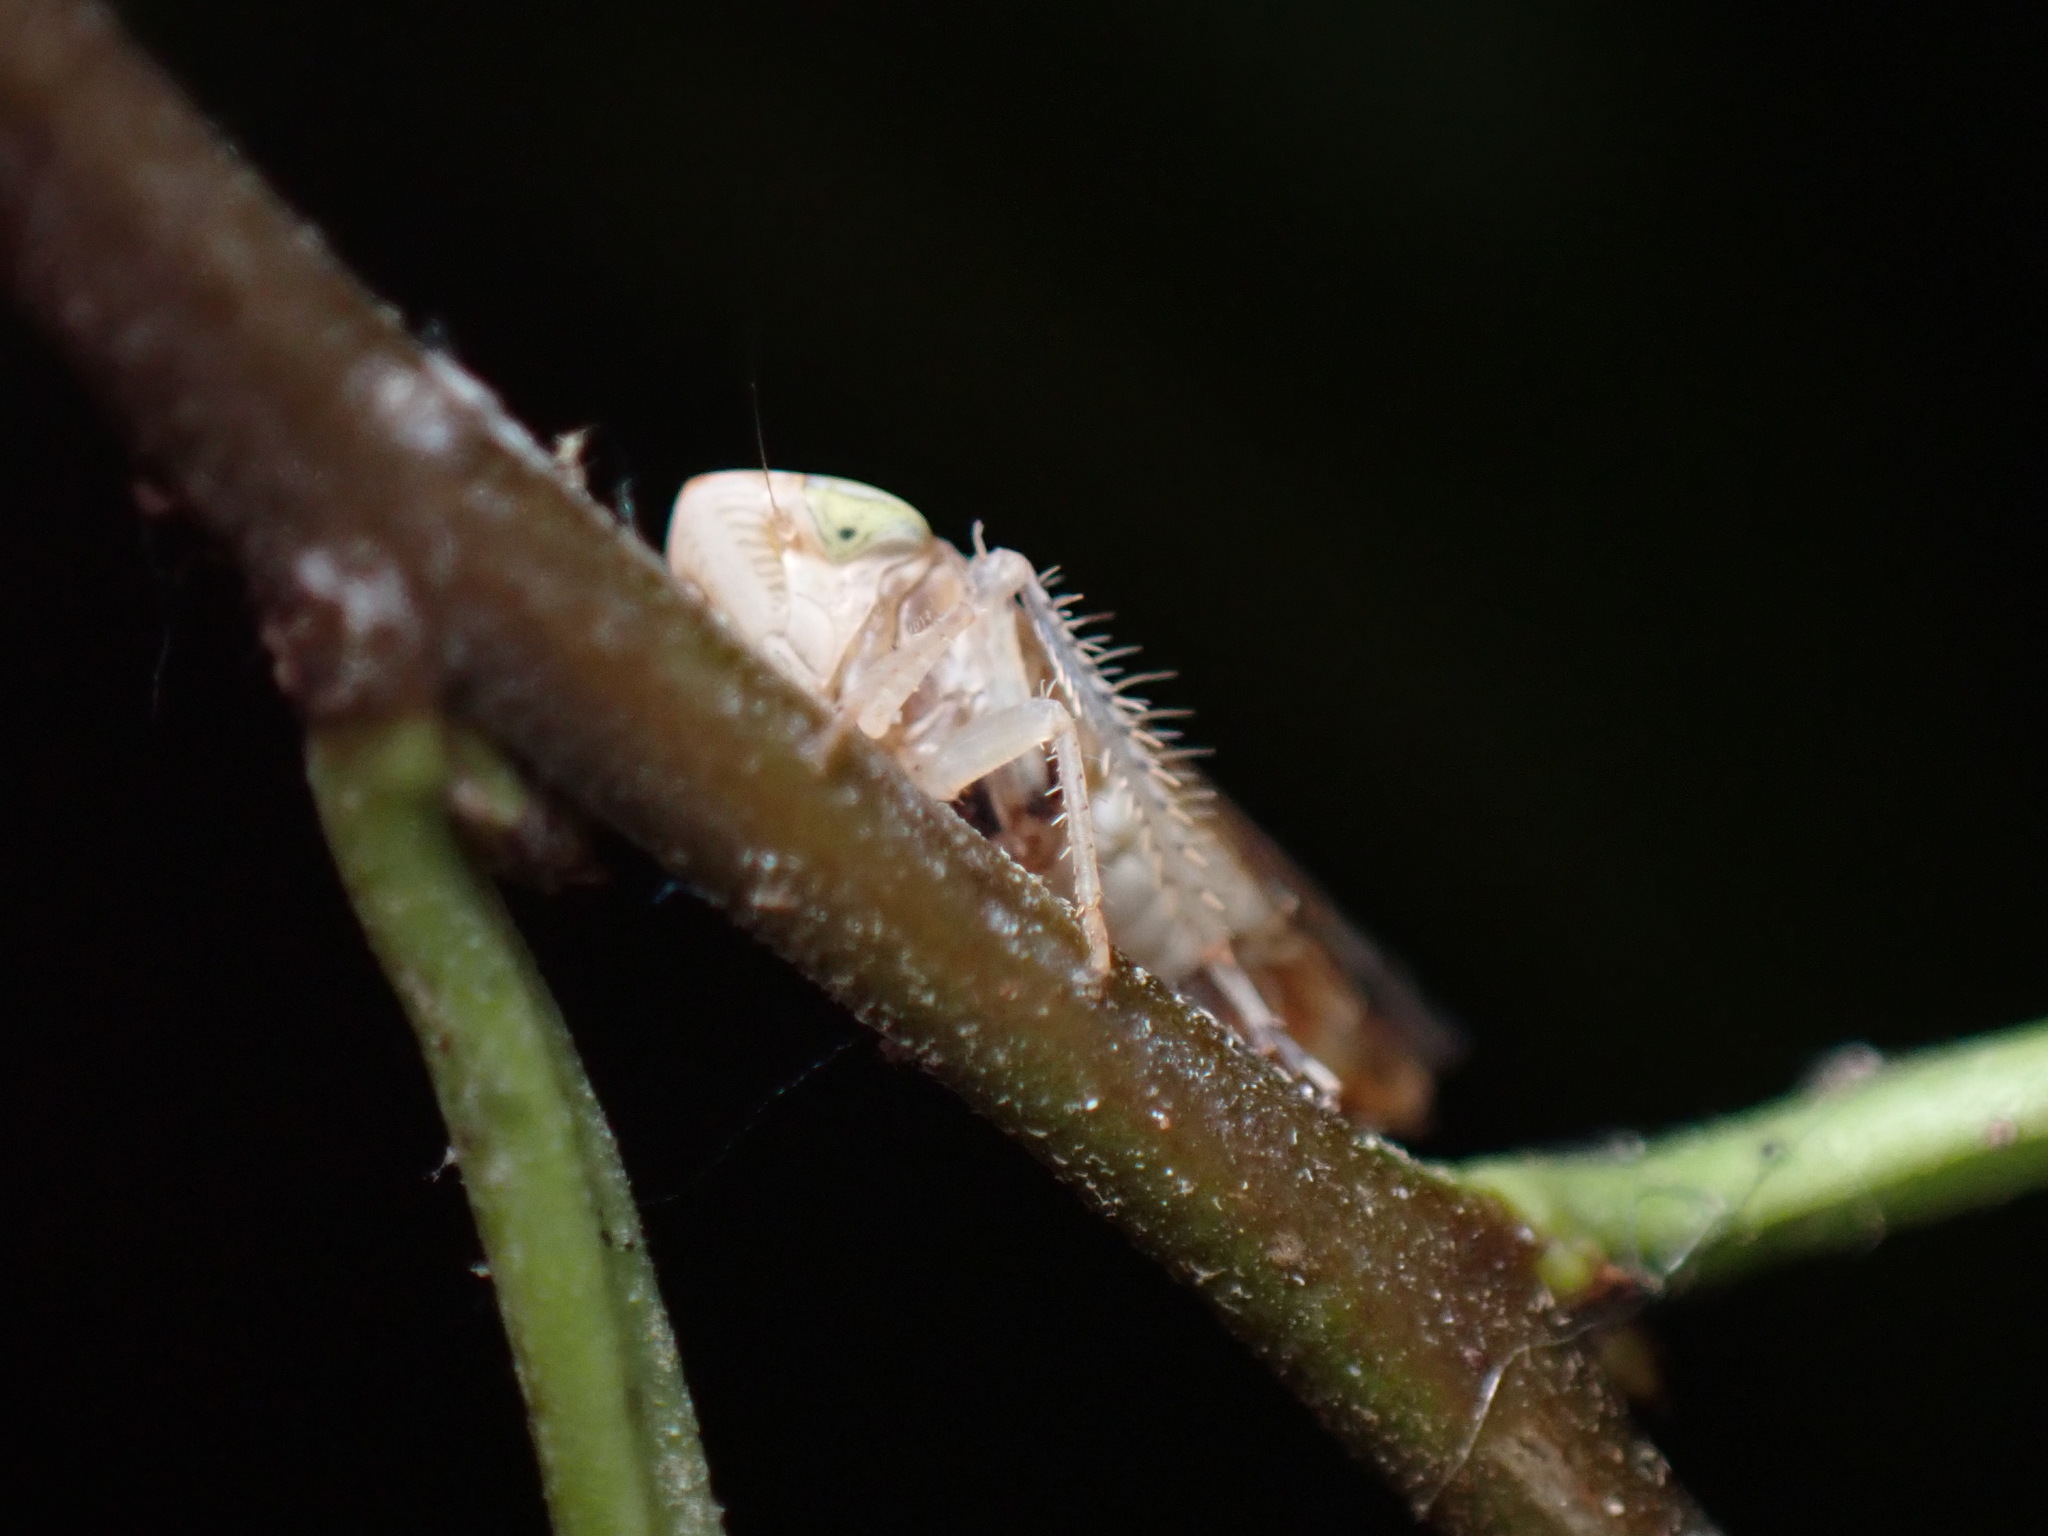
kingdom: Animalia
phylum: Arthropoda
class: Insecta
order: Hemiptera
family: Cicadellidae
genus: Synophropsis
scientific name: Synophropsis lauri
